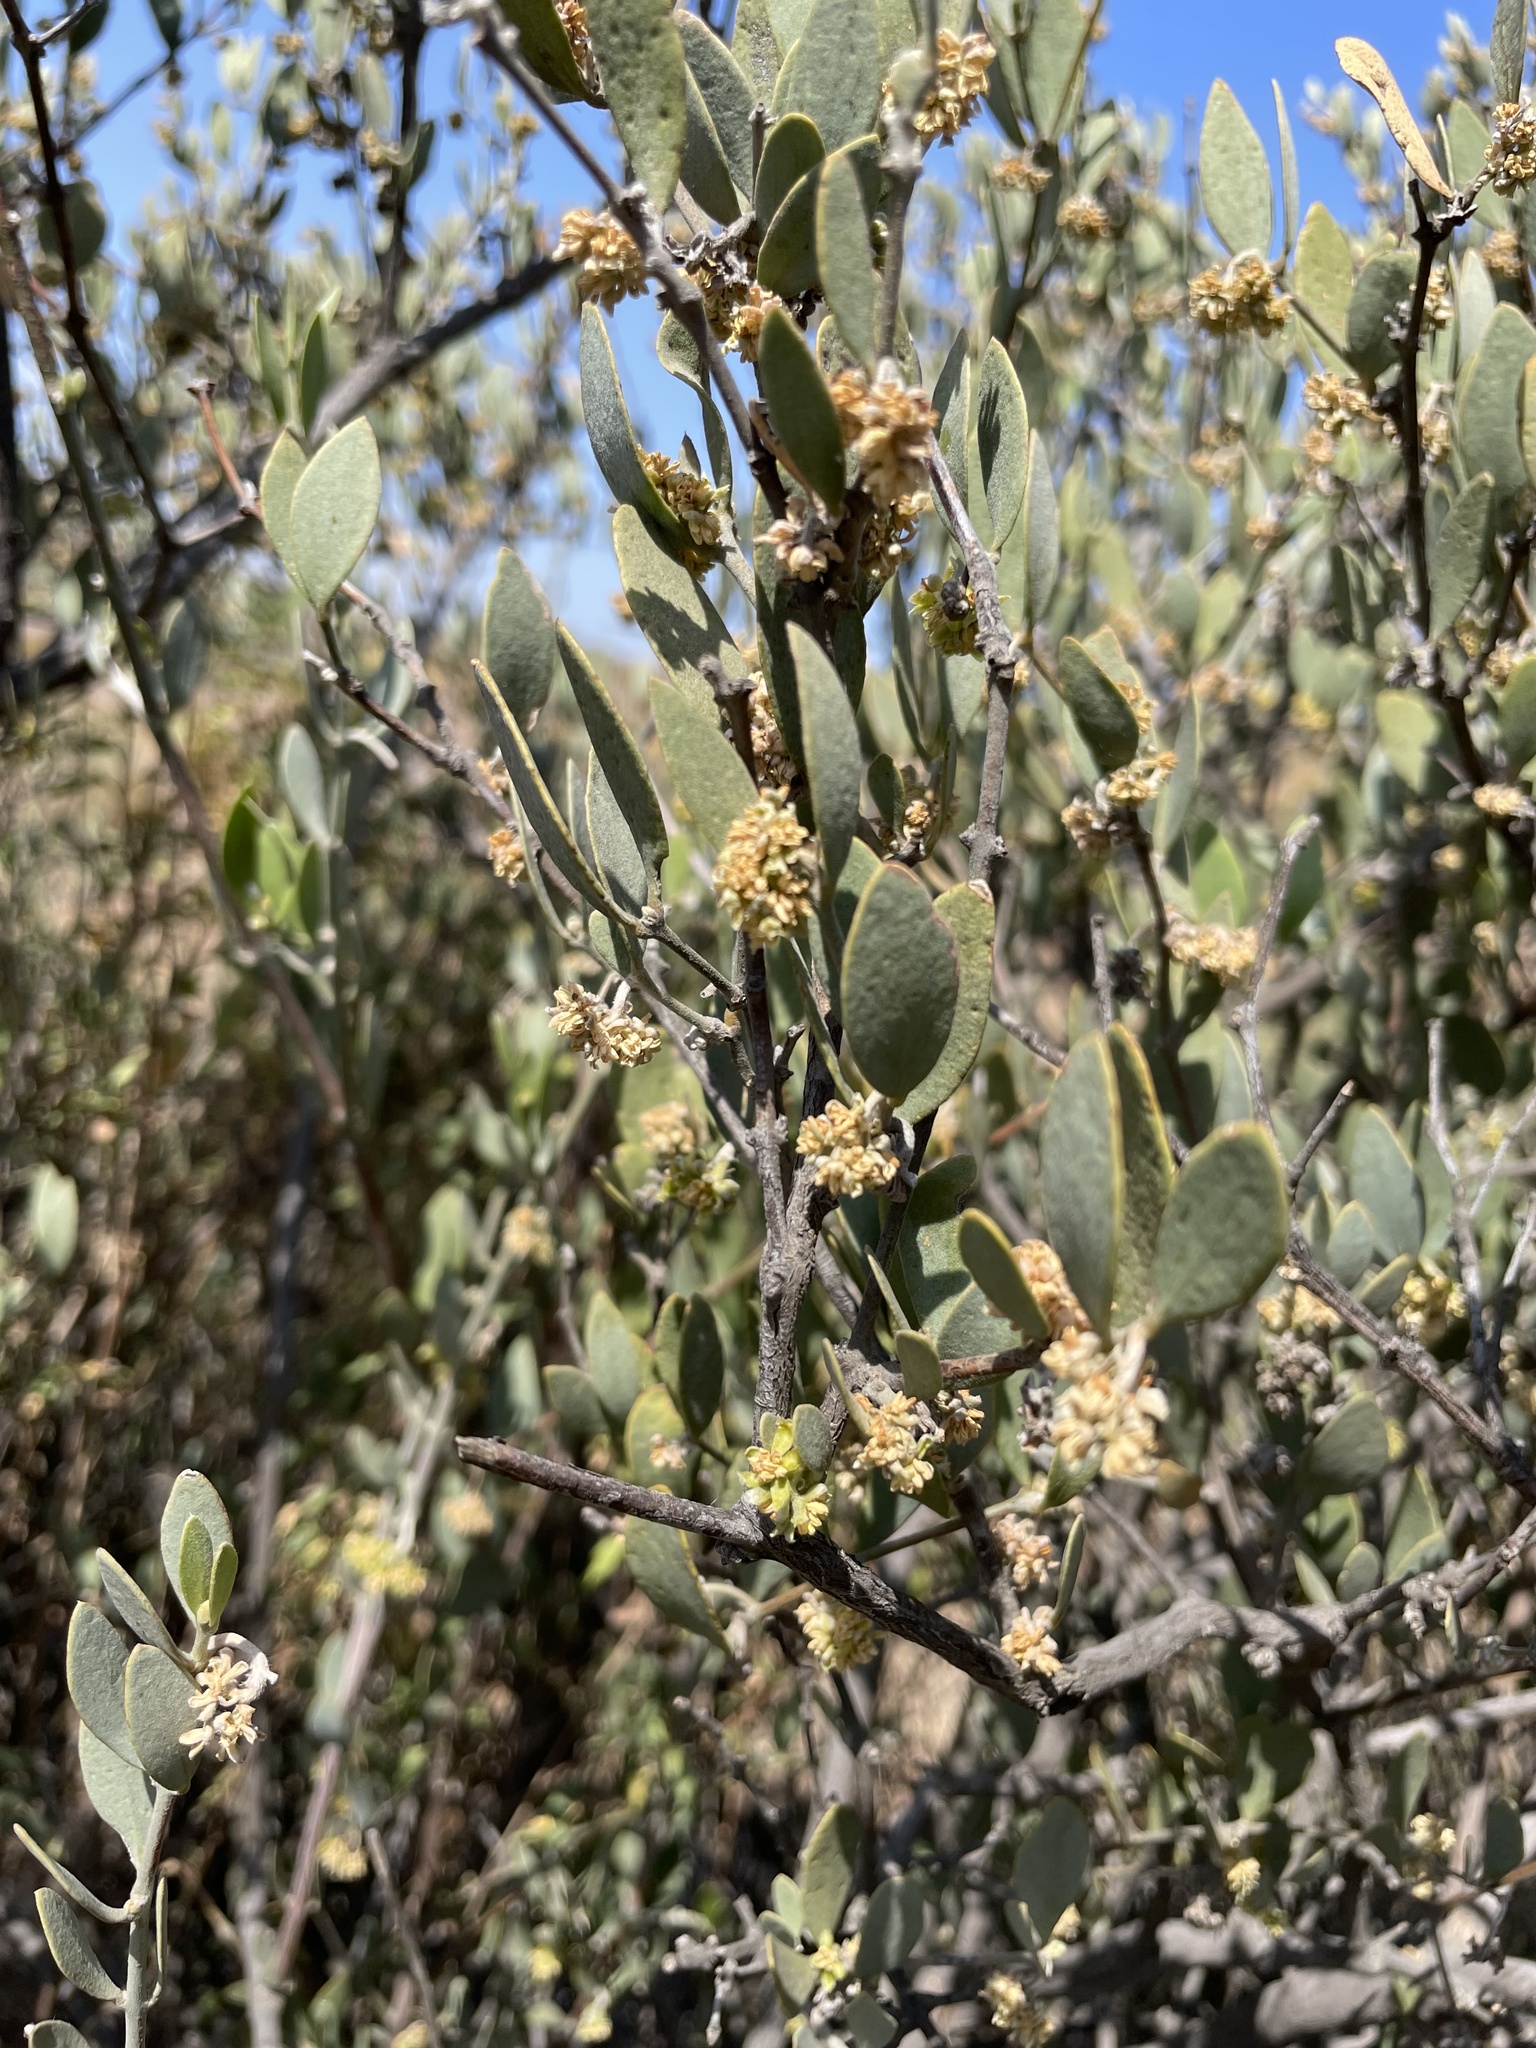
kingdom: Plantae
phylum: Tracheophyta
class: Magnoliopsida
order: Caryophyllales
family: Simmondsiaceae
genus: Simmondsia
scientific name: Simmondsia chinensis
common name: Jojoba
